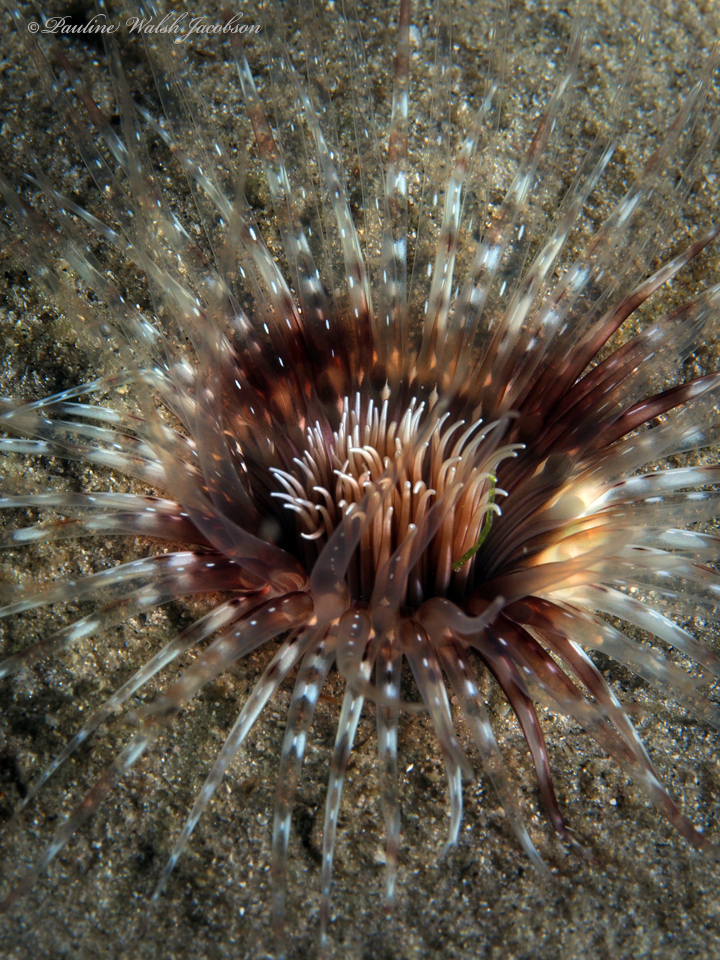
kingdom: Animalia
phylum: Cnidaria
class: Anthozoa
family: Cerianthidae
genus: Ceriantheopsis
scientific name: Ceriantheopsis americana
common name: American tube-dwelling anemone
